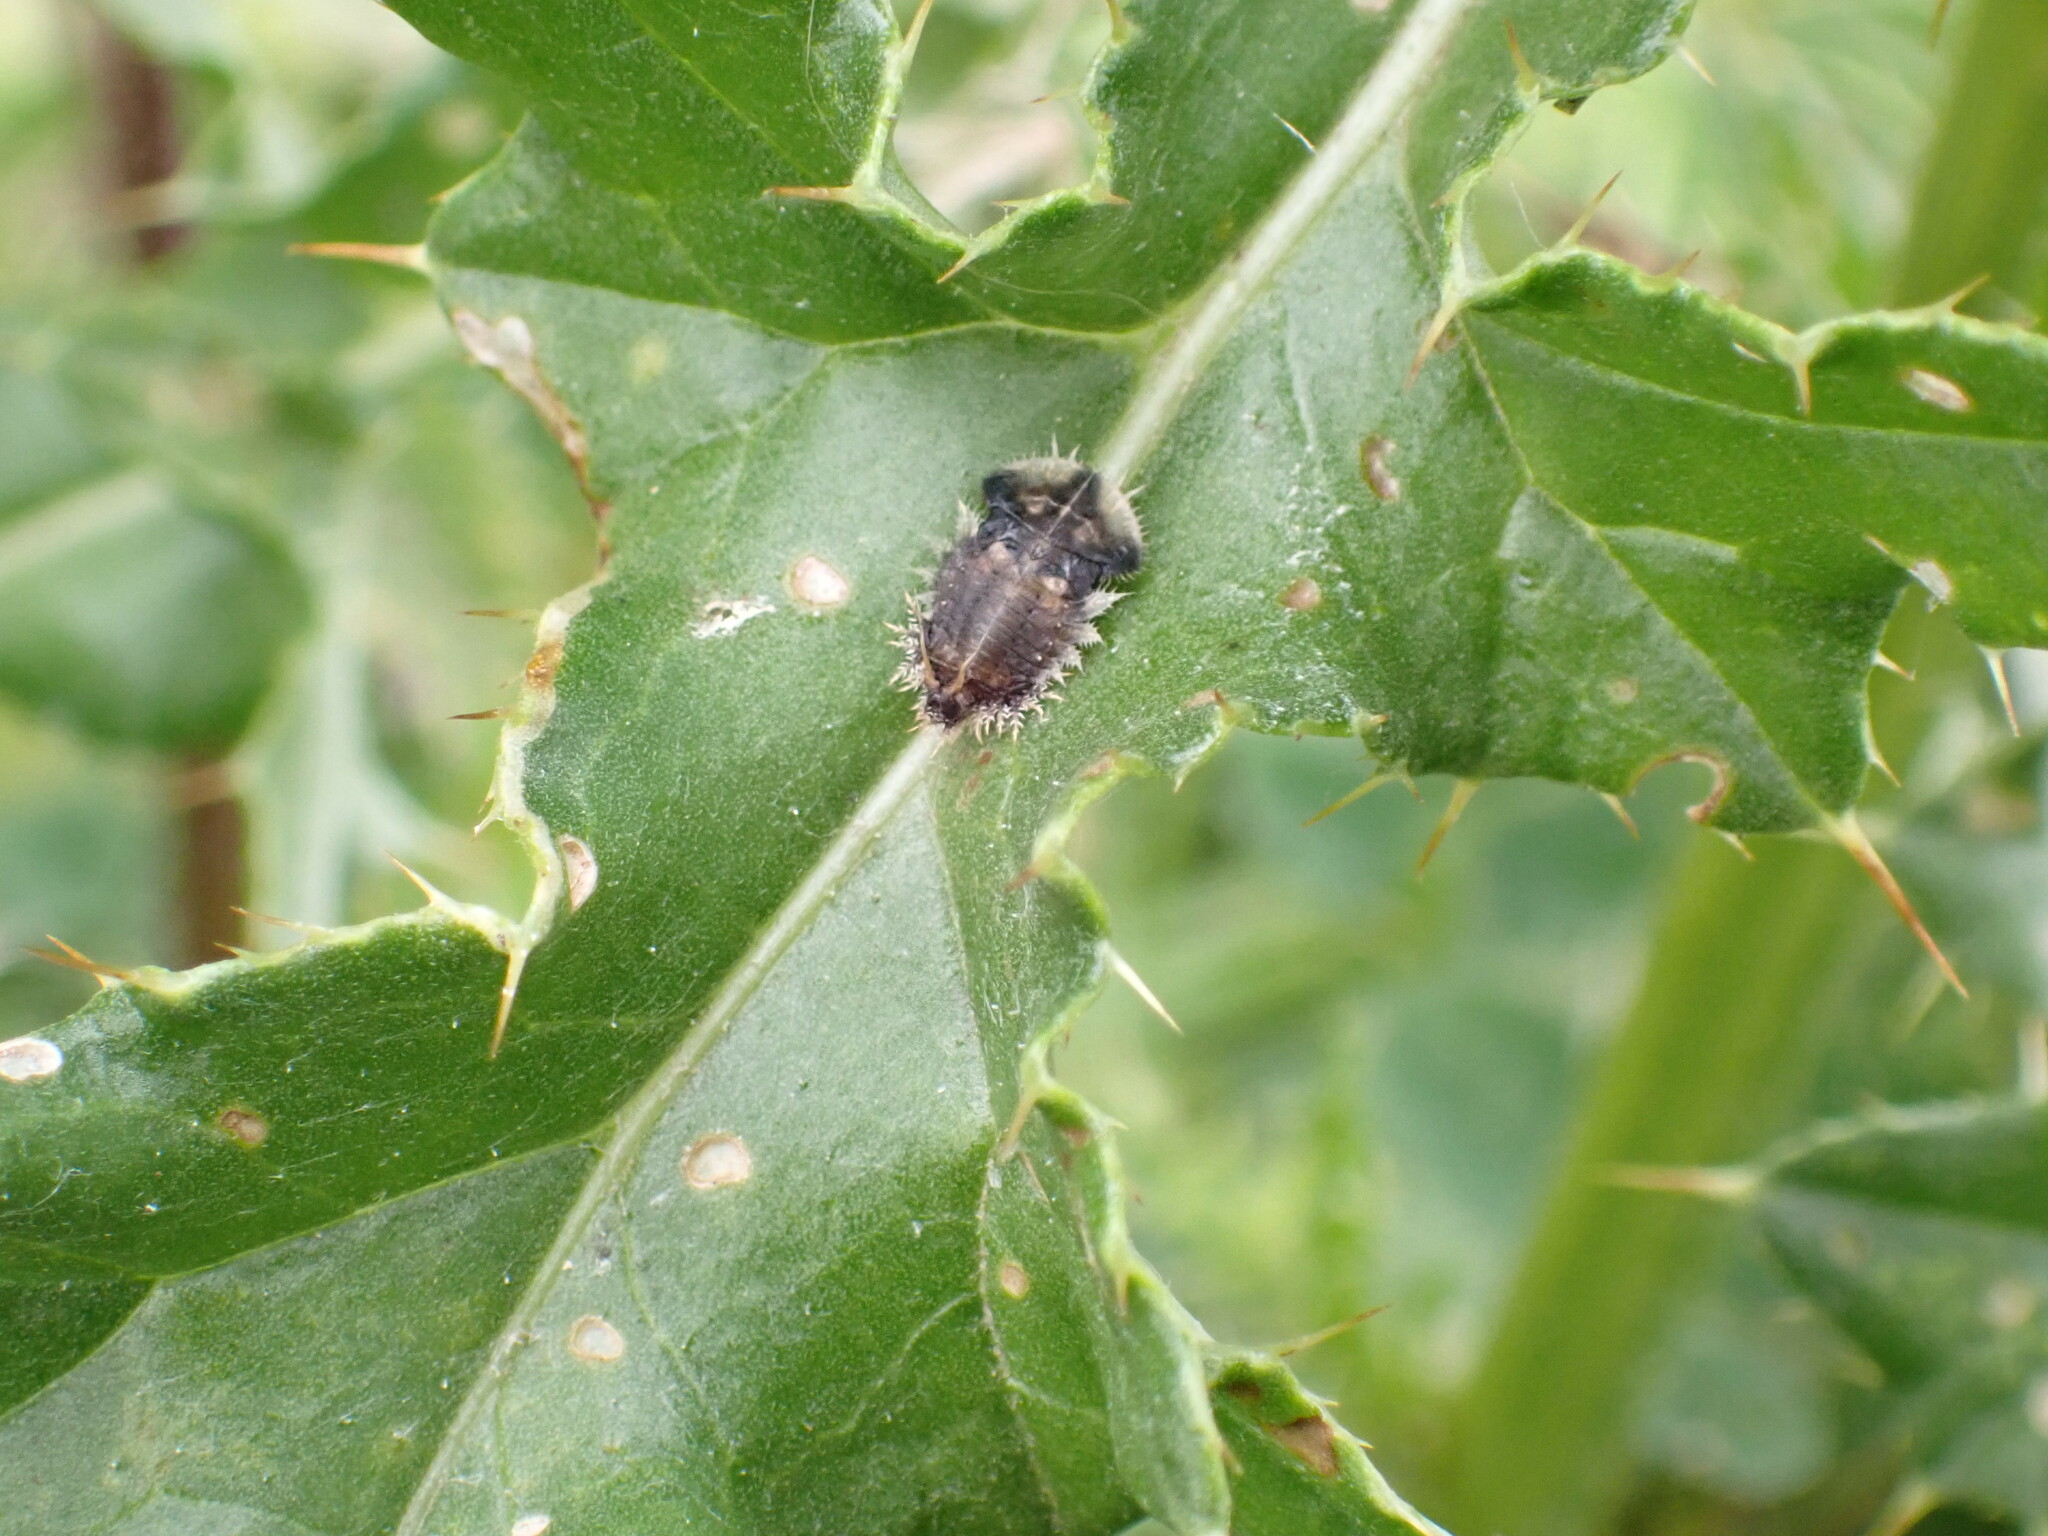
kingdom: Animalia
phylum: Arthropoda
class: Insecta
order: Coleoptera
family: Chrysomelidae
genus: Cassida
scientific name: Cassida rubiginosa
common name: Thistle tortoise beetle
